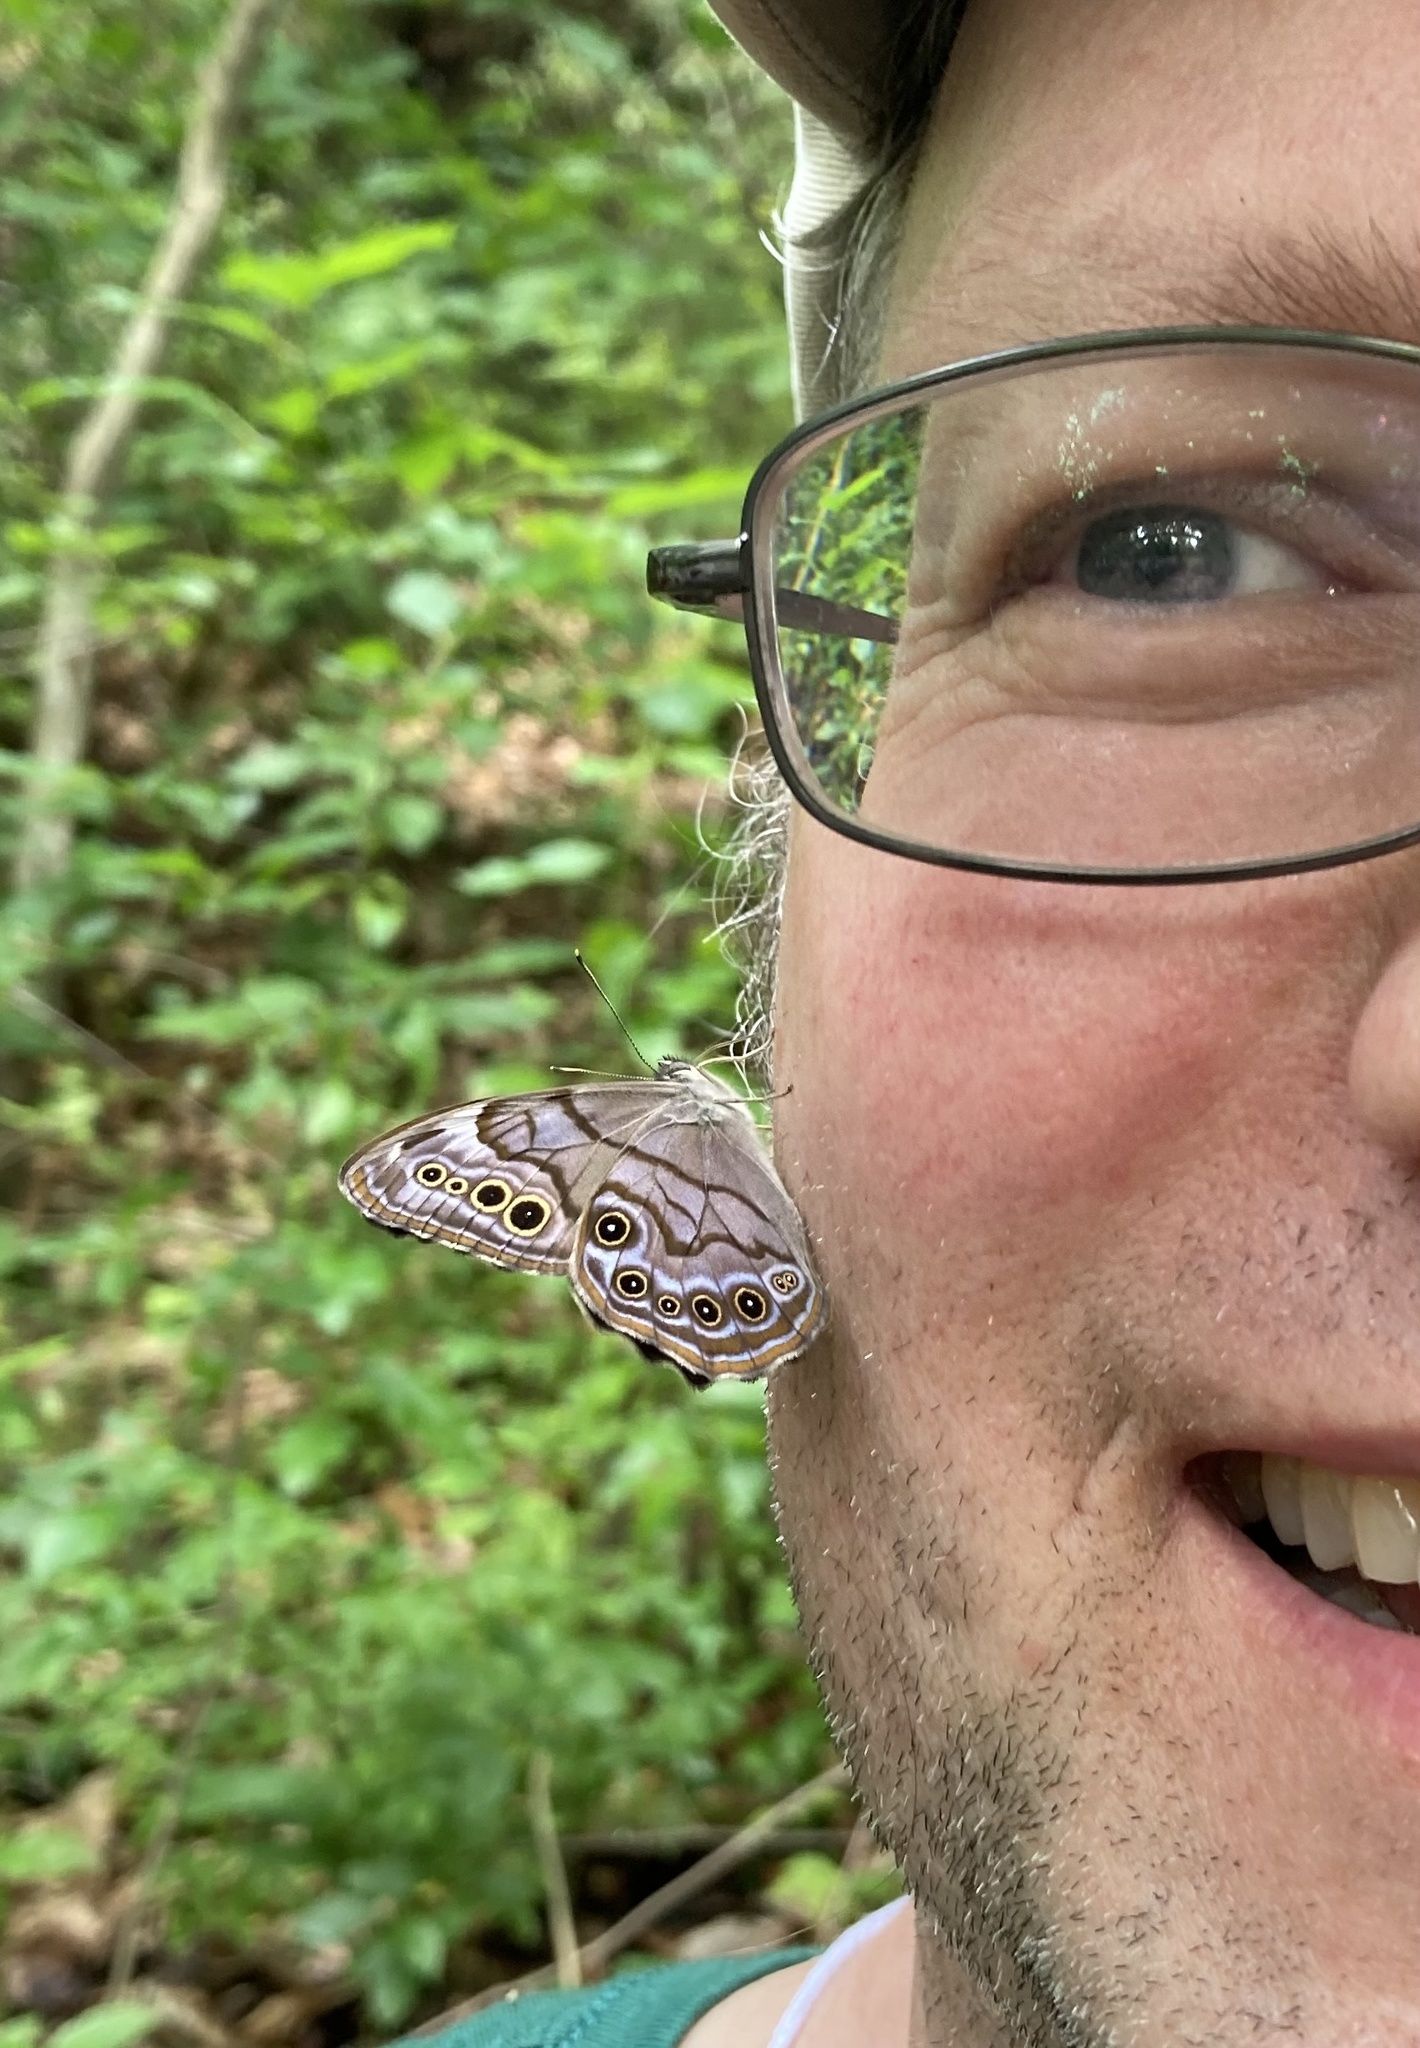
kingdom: Animalia
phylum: Arthropoda
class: Insecta
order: Lepidoptera
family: Nymphalidae
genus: Lethe
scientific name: Lethe anthedon
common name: Northern pearly-eye
